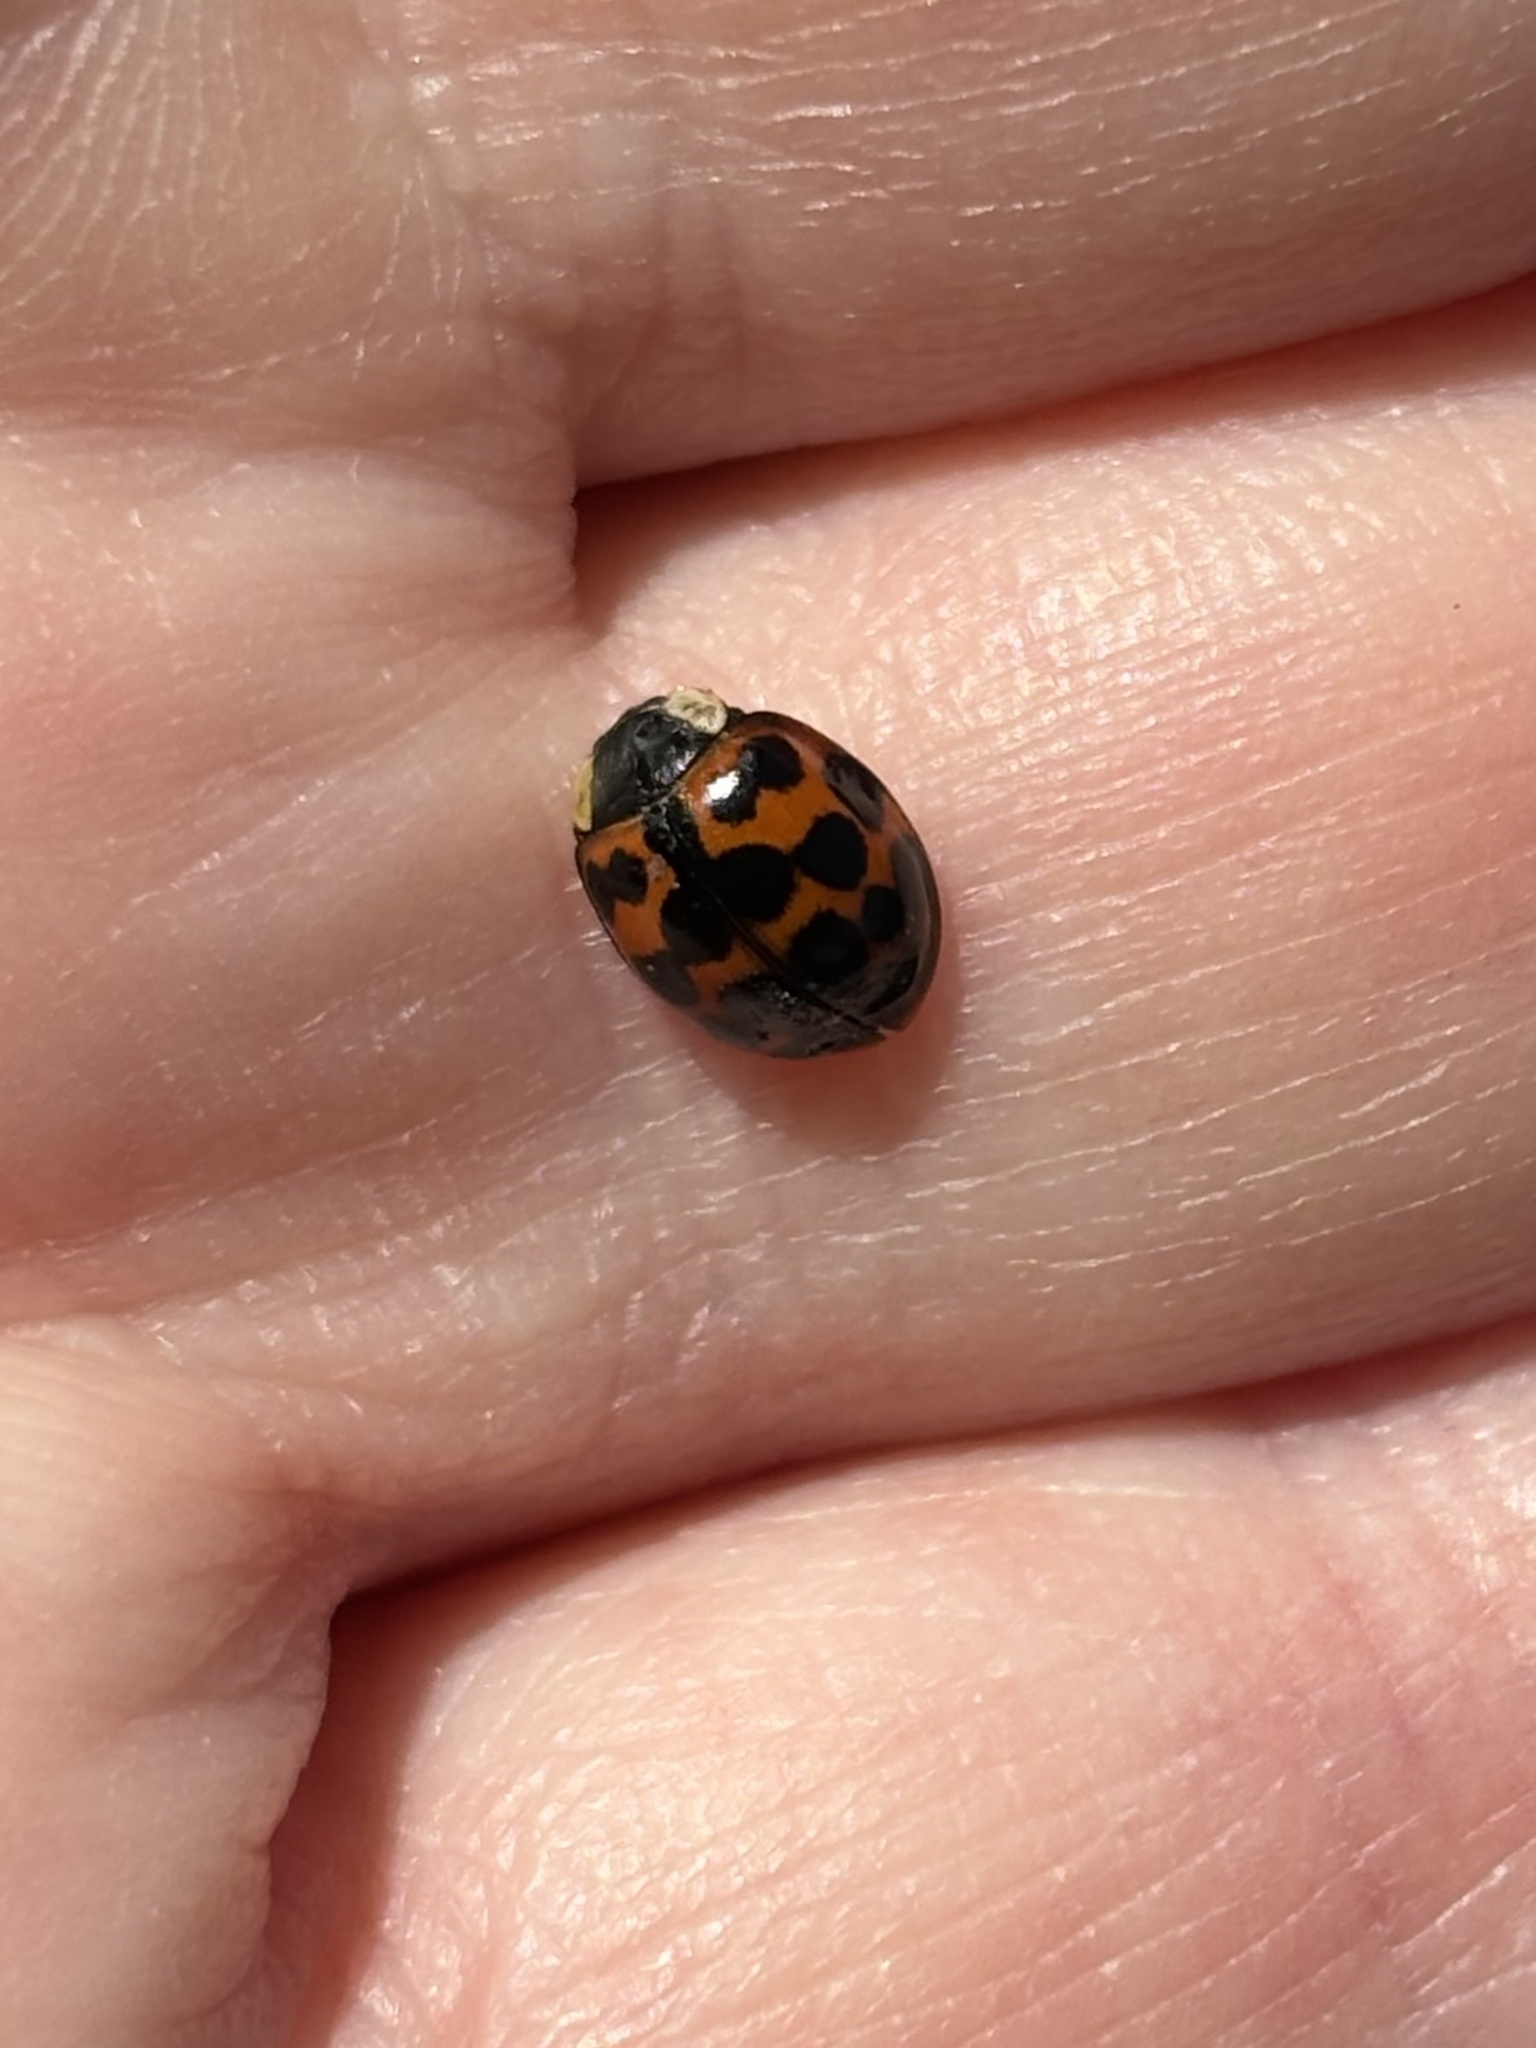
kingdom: Animalia
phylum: Arthropoda
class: Insecta
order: Coleoptera
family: Coccinellidae
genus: Harmonia
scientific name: Harmonia axyridis
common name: Harlequin ladybird
